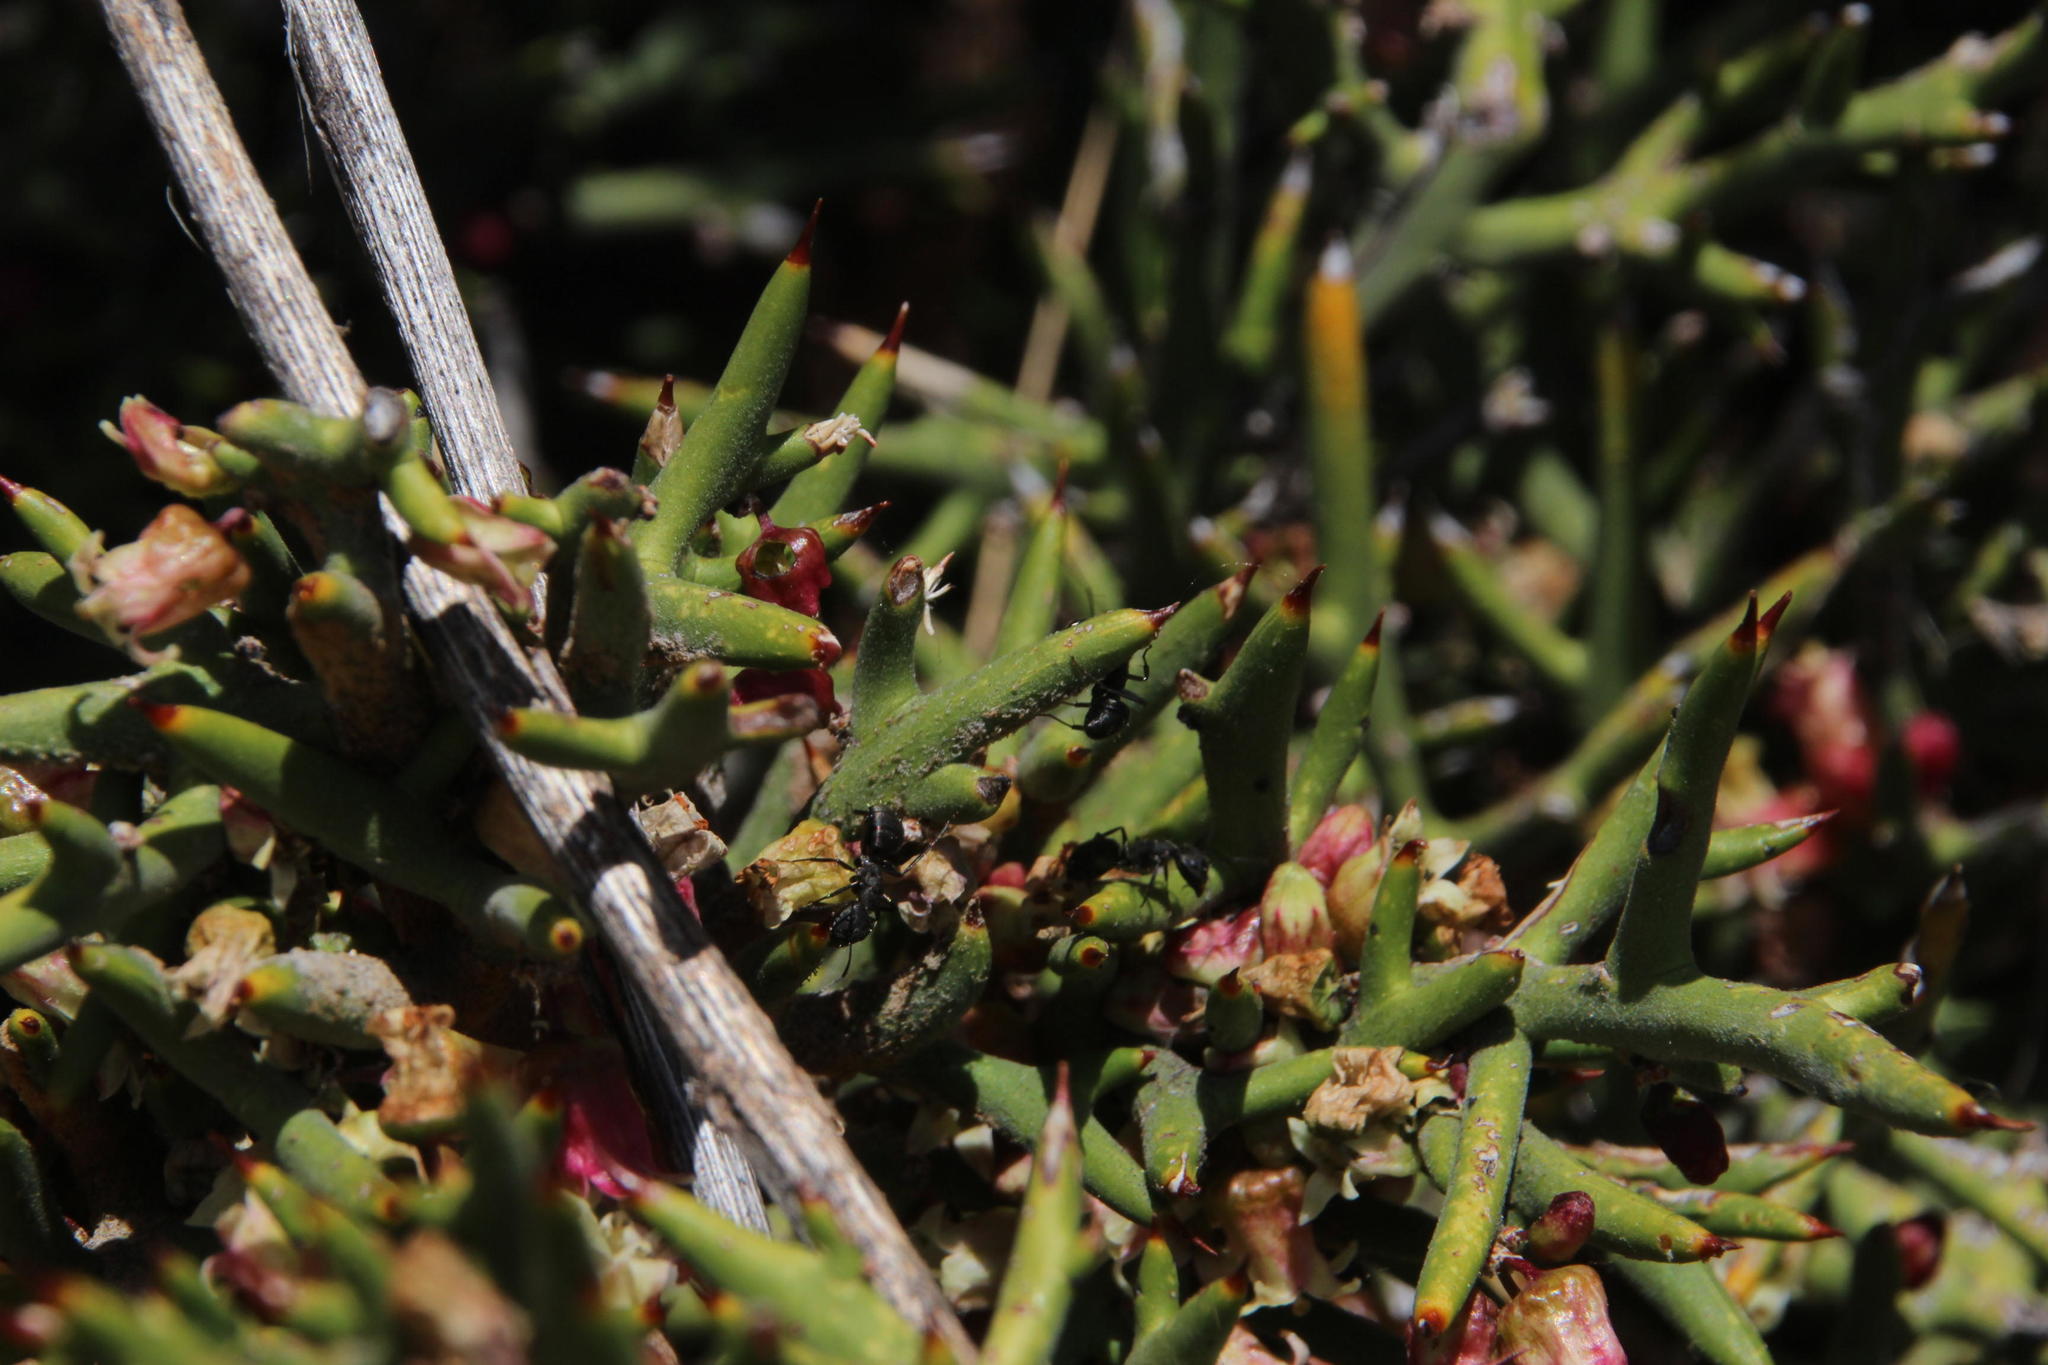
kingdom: Plantae
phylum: Tracheophyta
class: Magnoliopsida
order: Rosales
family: Rhamnaceae
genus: Colletia
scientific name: Colletia spinosissima
